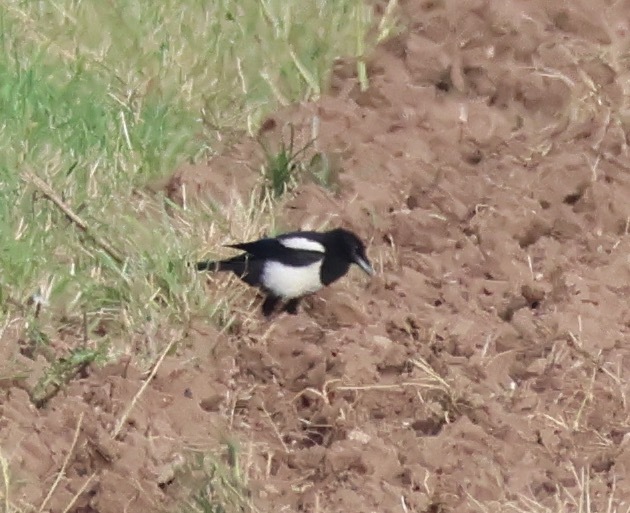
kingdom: Animalia
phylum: Chordata
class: Aves
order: Passeriformes
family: Corvidae
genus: Pica
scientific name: Pica pica
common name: Eurasian magpie
